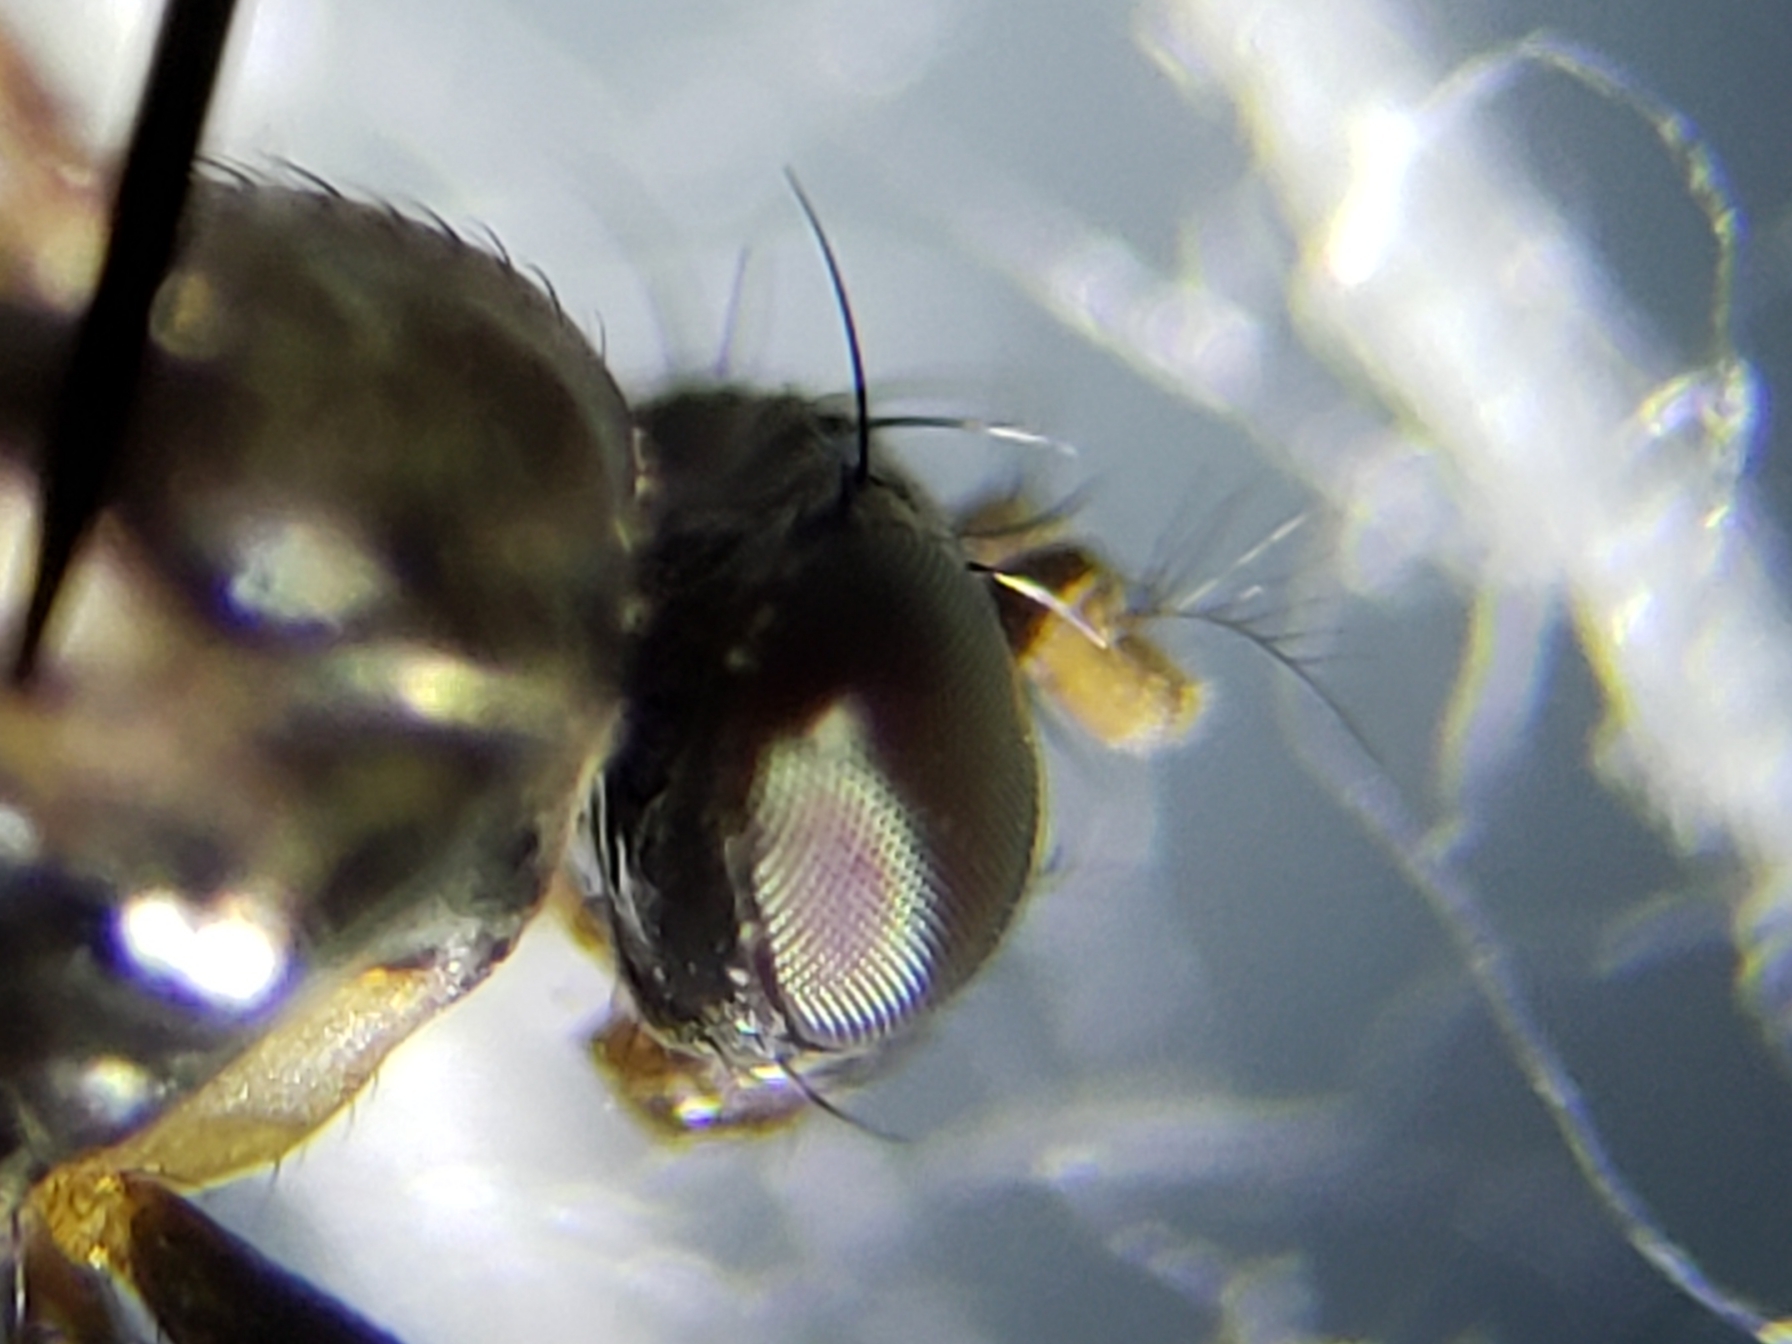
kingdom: Animalia
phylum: Arthropoda
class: Insecta
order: Diptera
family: Ephydridae
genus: Leptopsilopa
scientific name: Leptopsilopa nigrimanus
